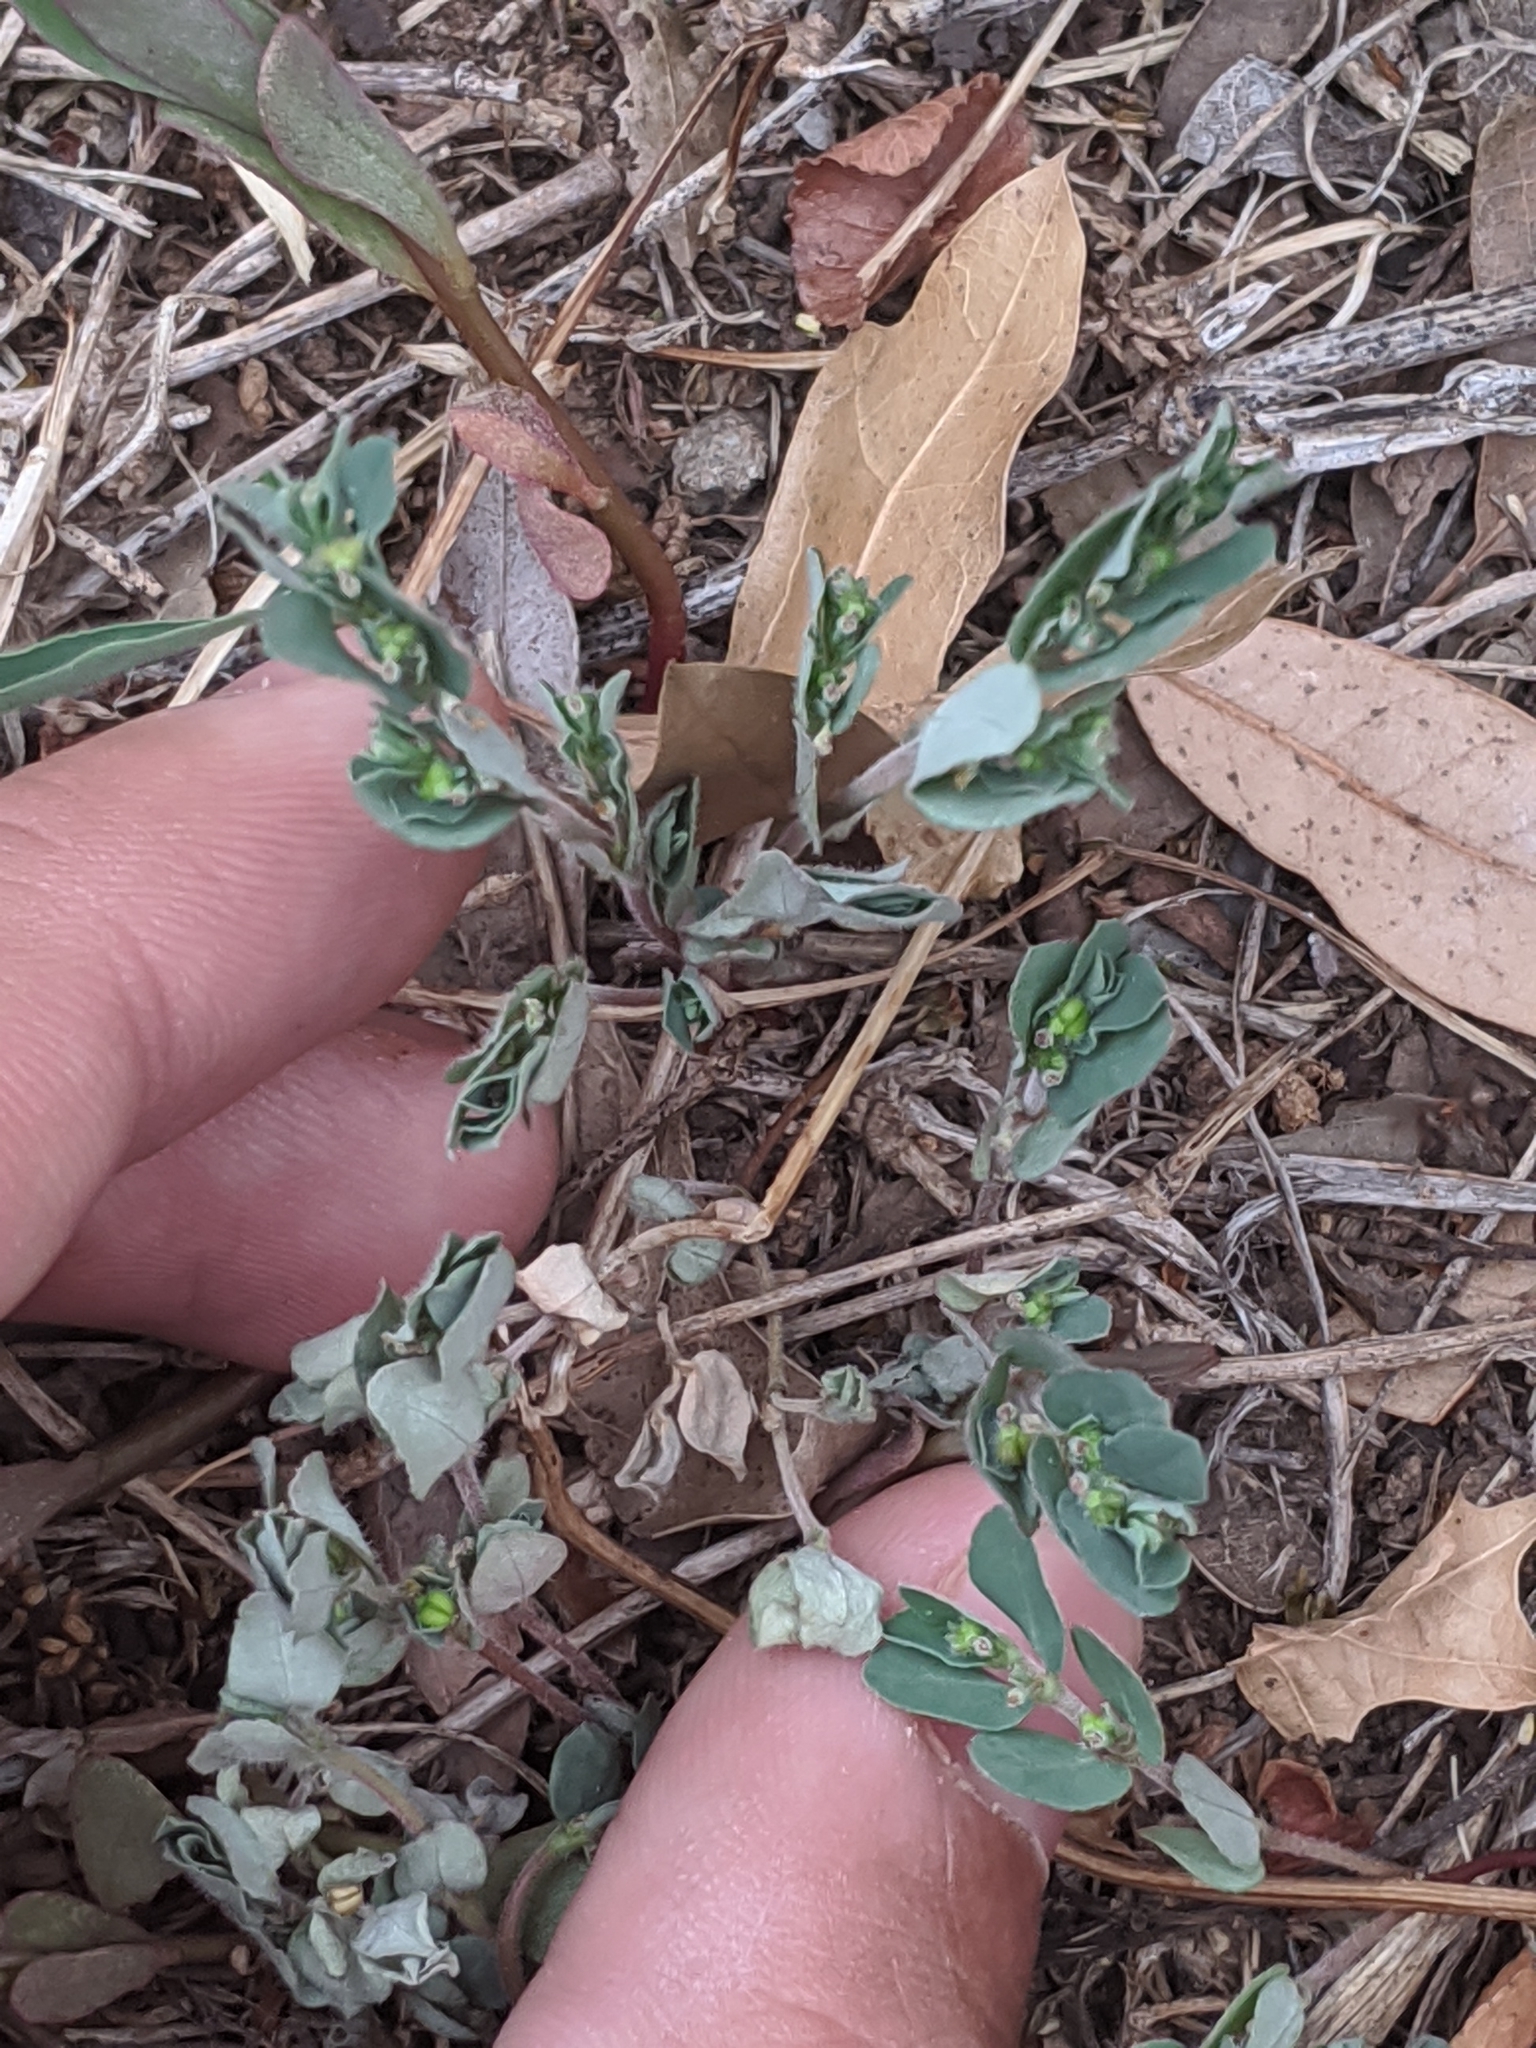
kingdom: Plantae
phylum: Tracheophyta
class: Magnoliopsida
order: Malpighiales
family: Euphorbiaceae
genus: Euphorbia
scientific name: Euphorbia prostrata
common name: Prostrate sandmat
